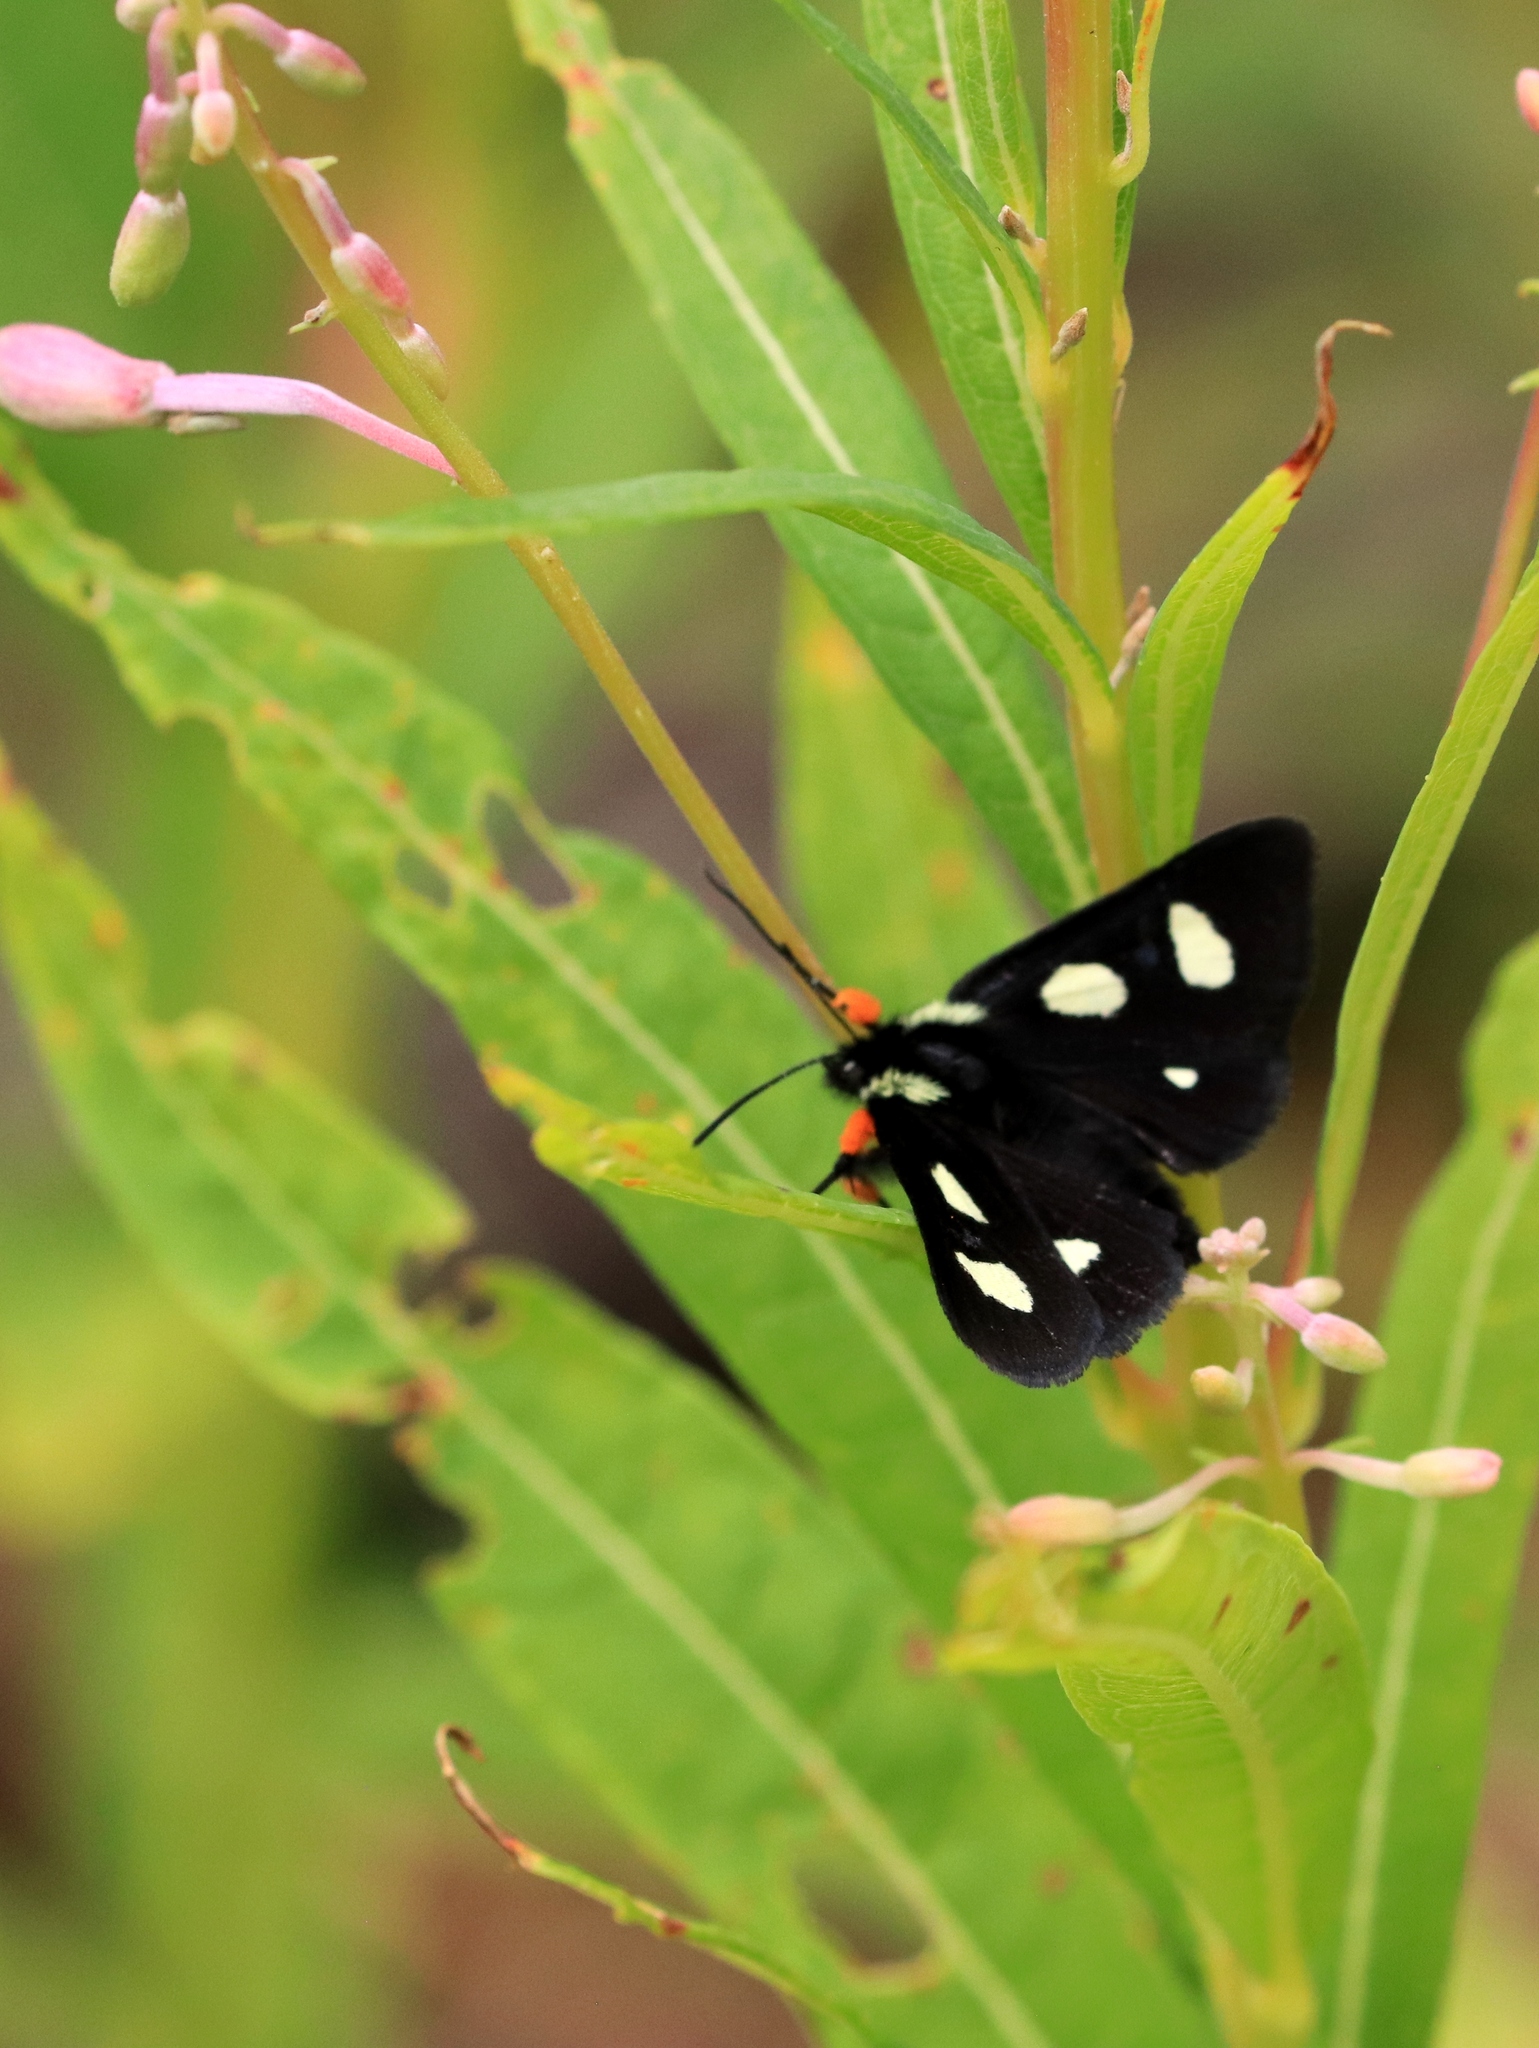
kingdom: Animalia
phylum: Arthropoda
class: Insecta
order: Lepidoptera
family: Noctuidae
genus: Alypia
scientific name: Alypia langtonii
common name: Fireweed caterpillar
